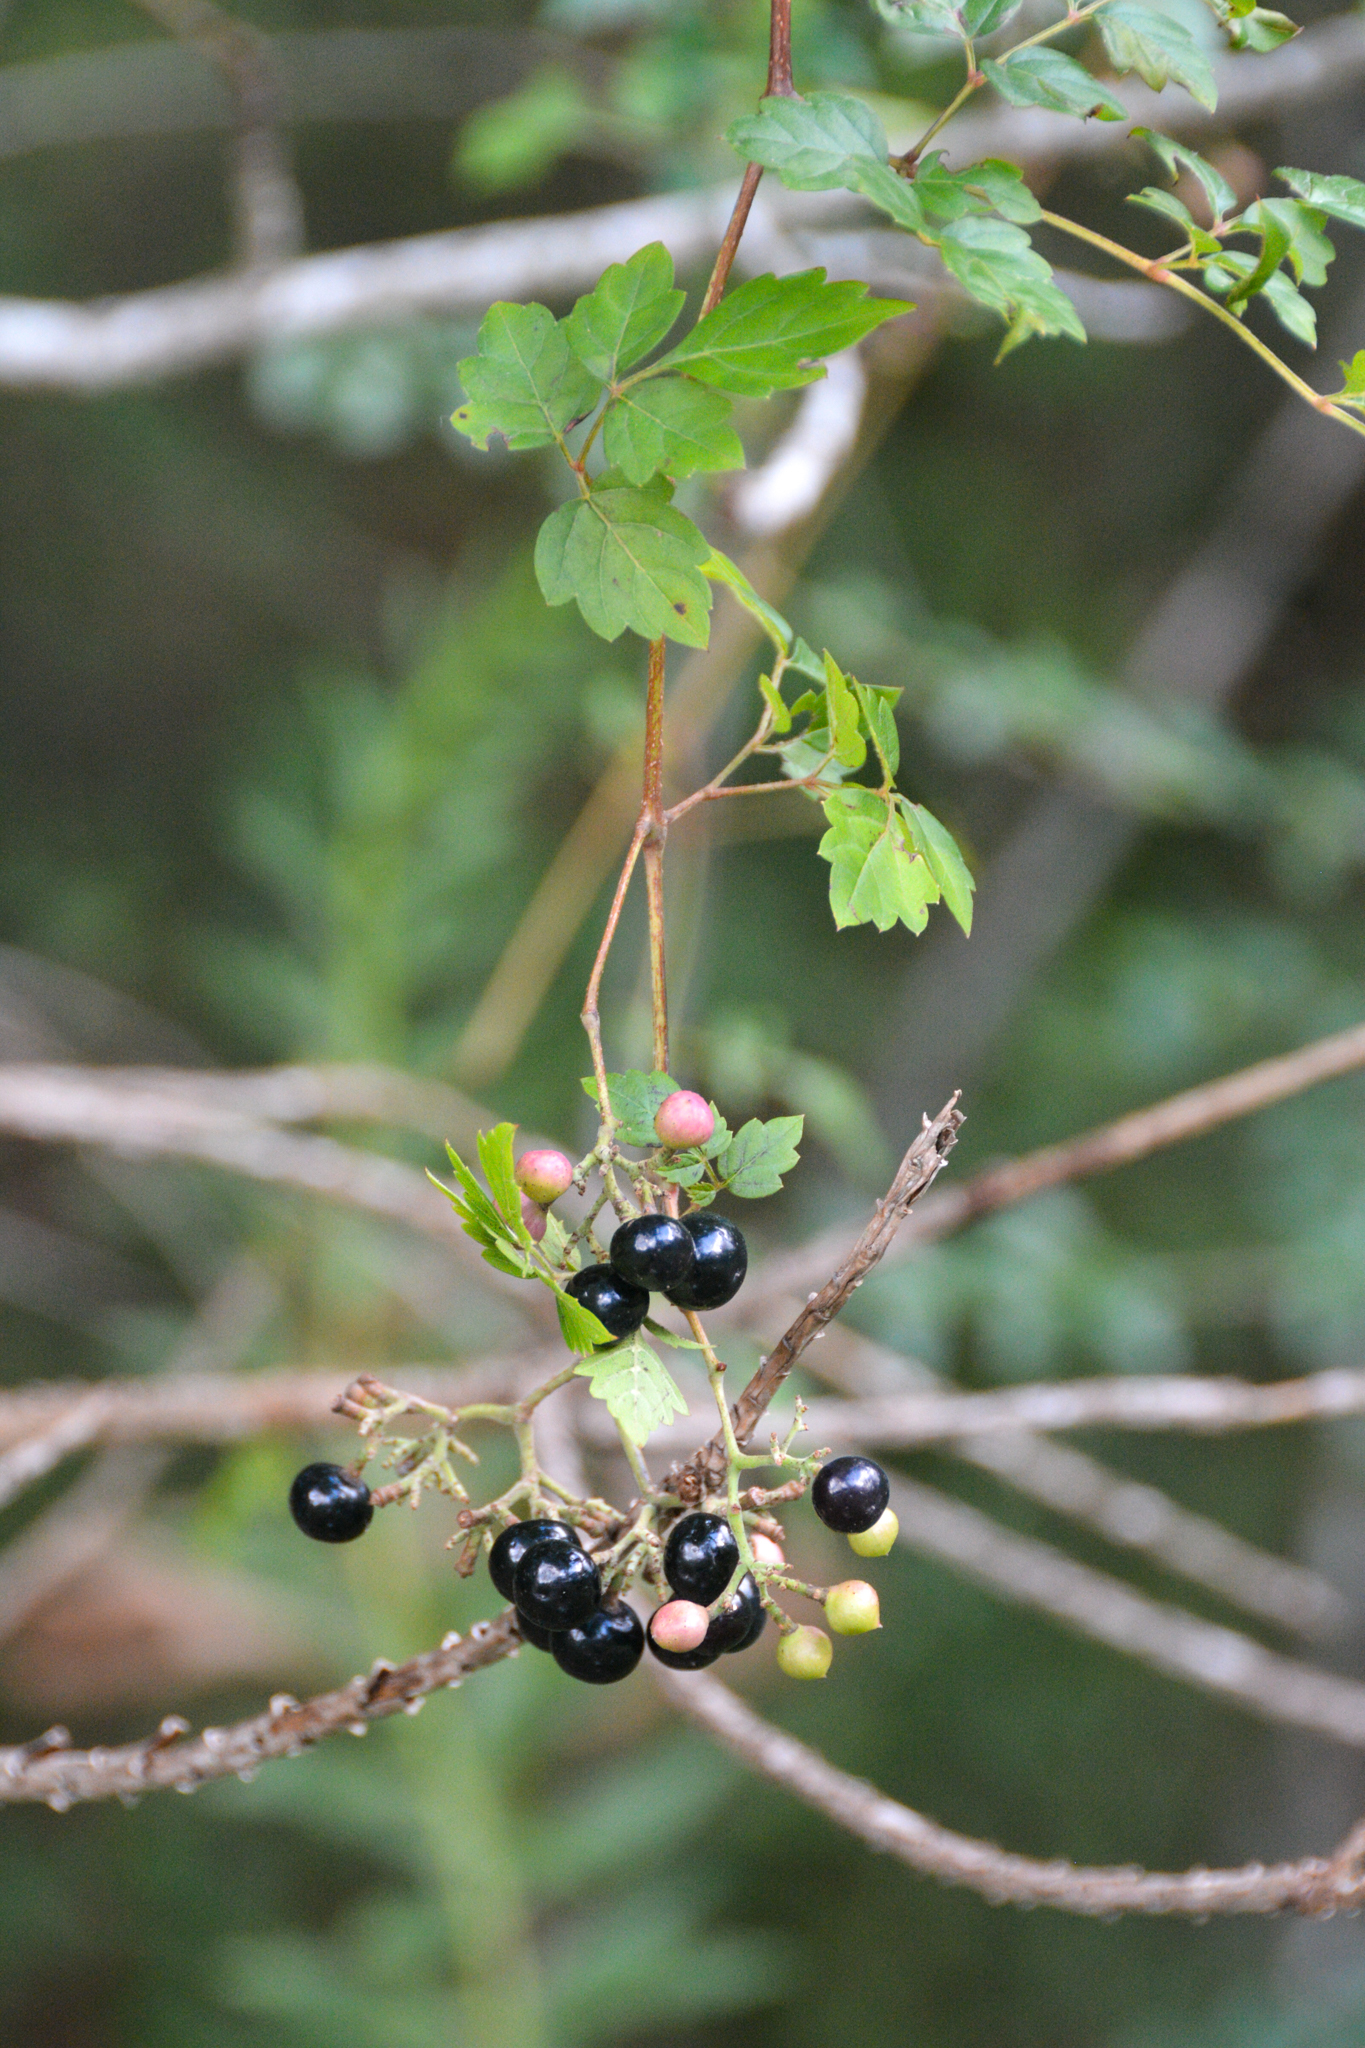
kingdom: Plantae
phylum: Tracheophyta
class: Magnoliopsida
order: Vitales
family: Vitaceae
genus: Nekemias
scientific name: Nekemias arborea
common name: Peppervine
